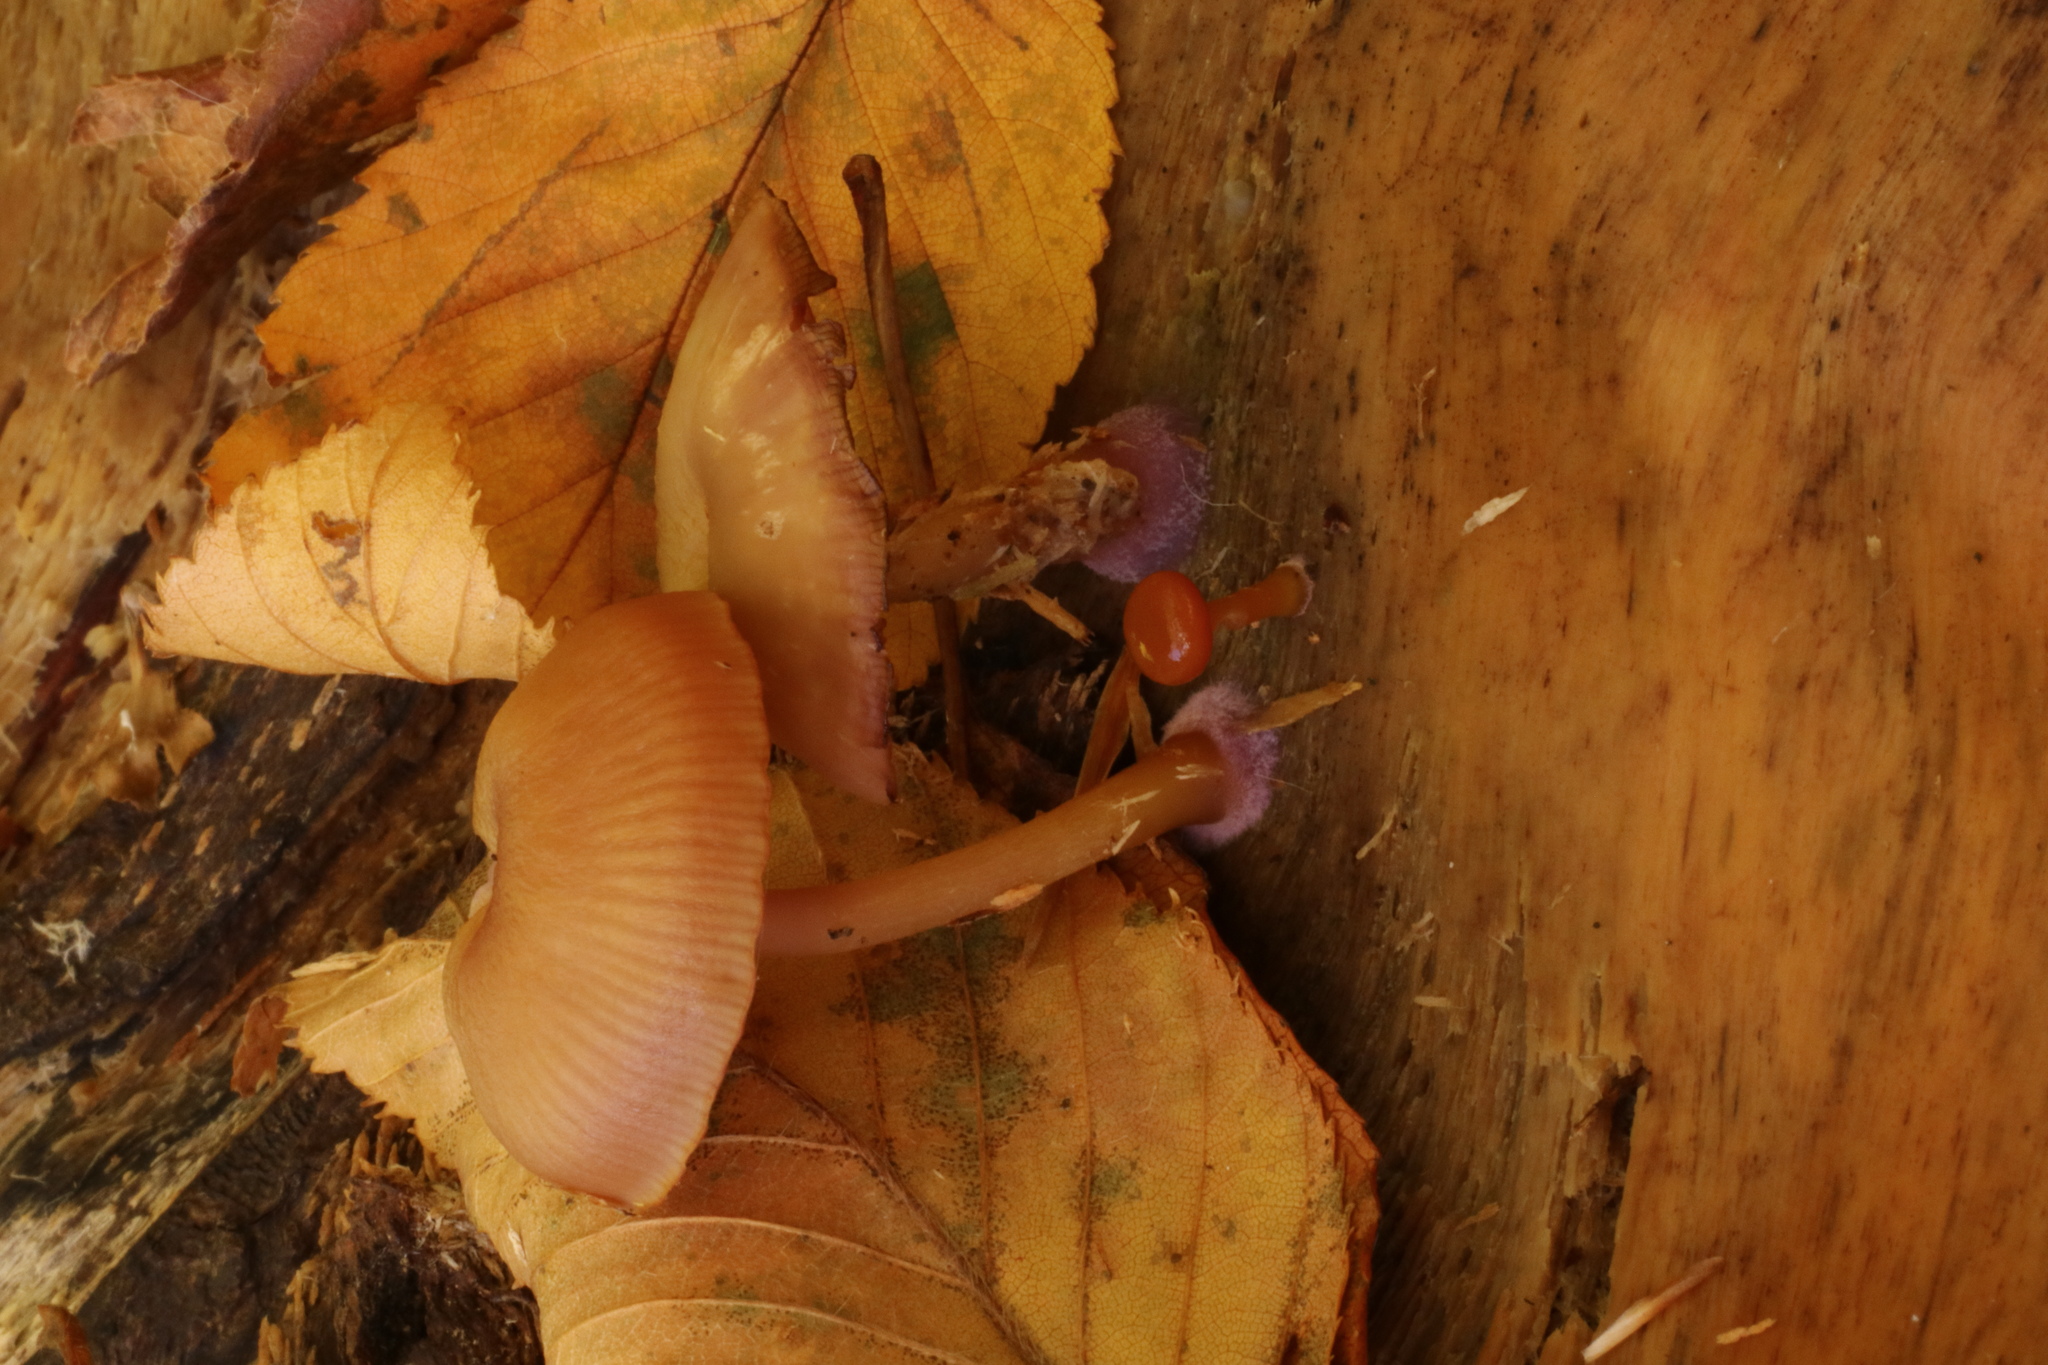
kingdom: Fungi
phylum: Basidiomycota
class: Agaricomycetes
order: Agaricales
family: Hygrophoraceae
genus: Chromosera
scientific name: Chromosera cyanophylla
